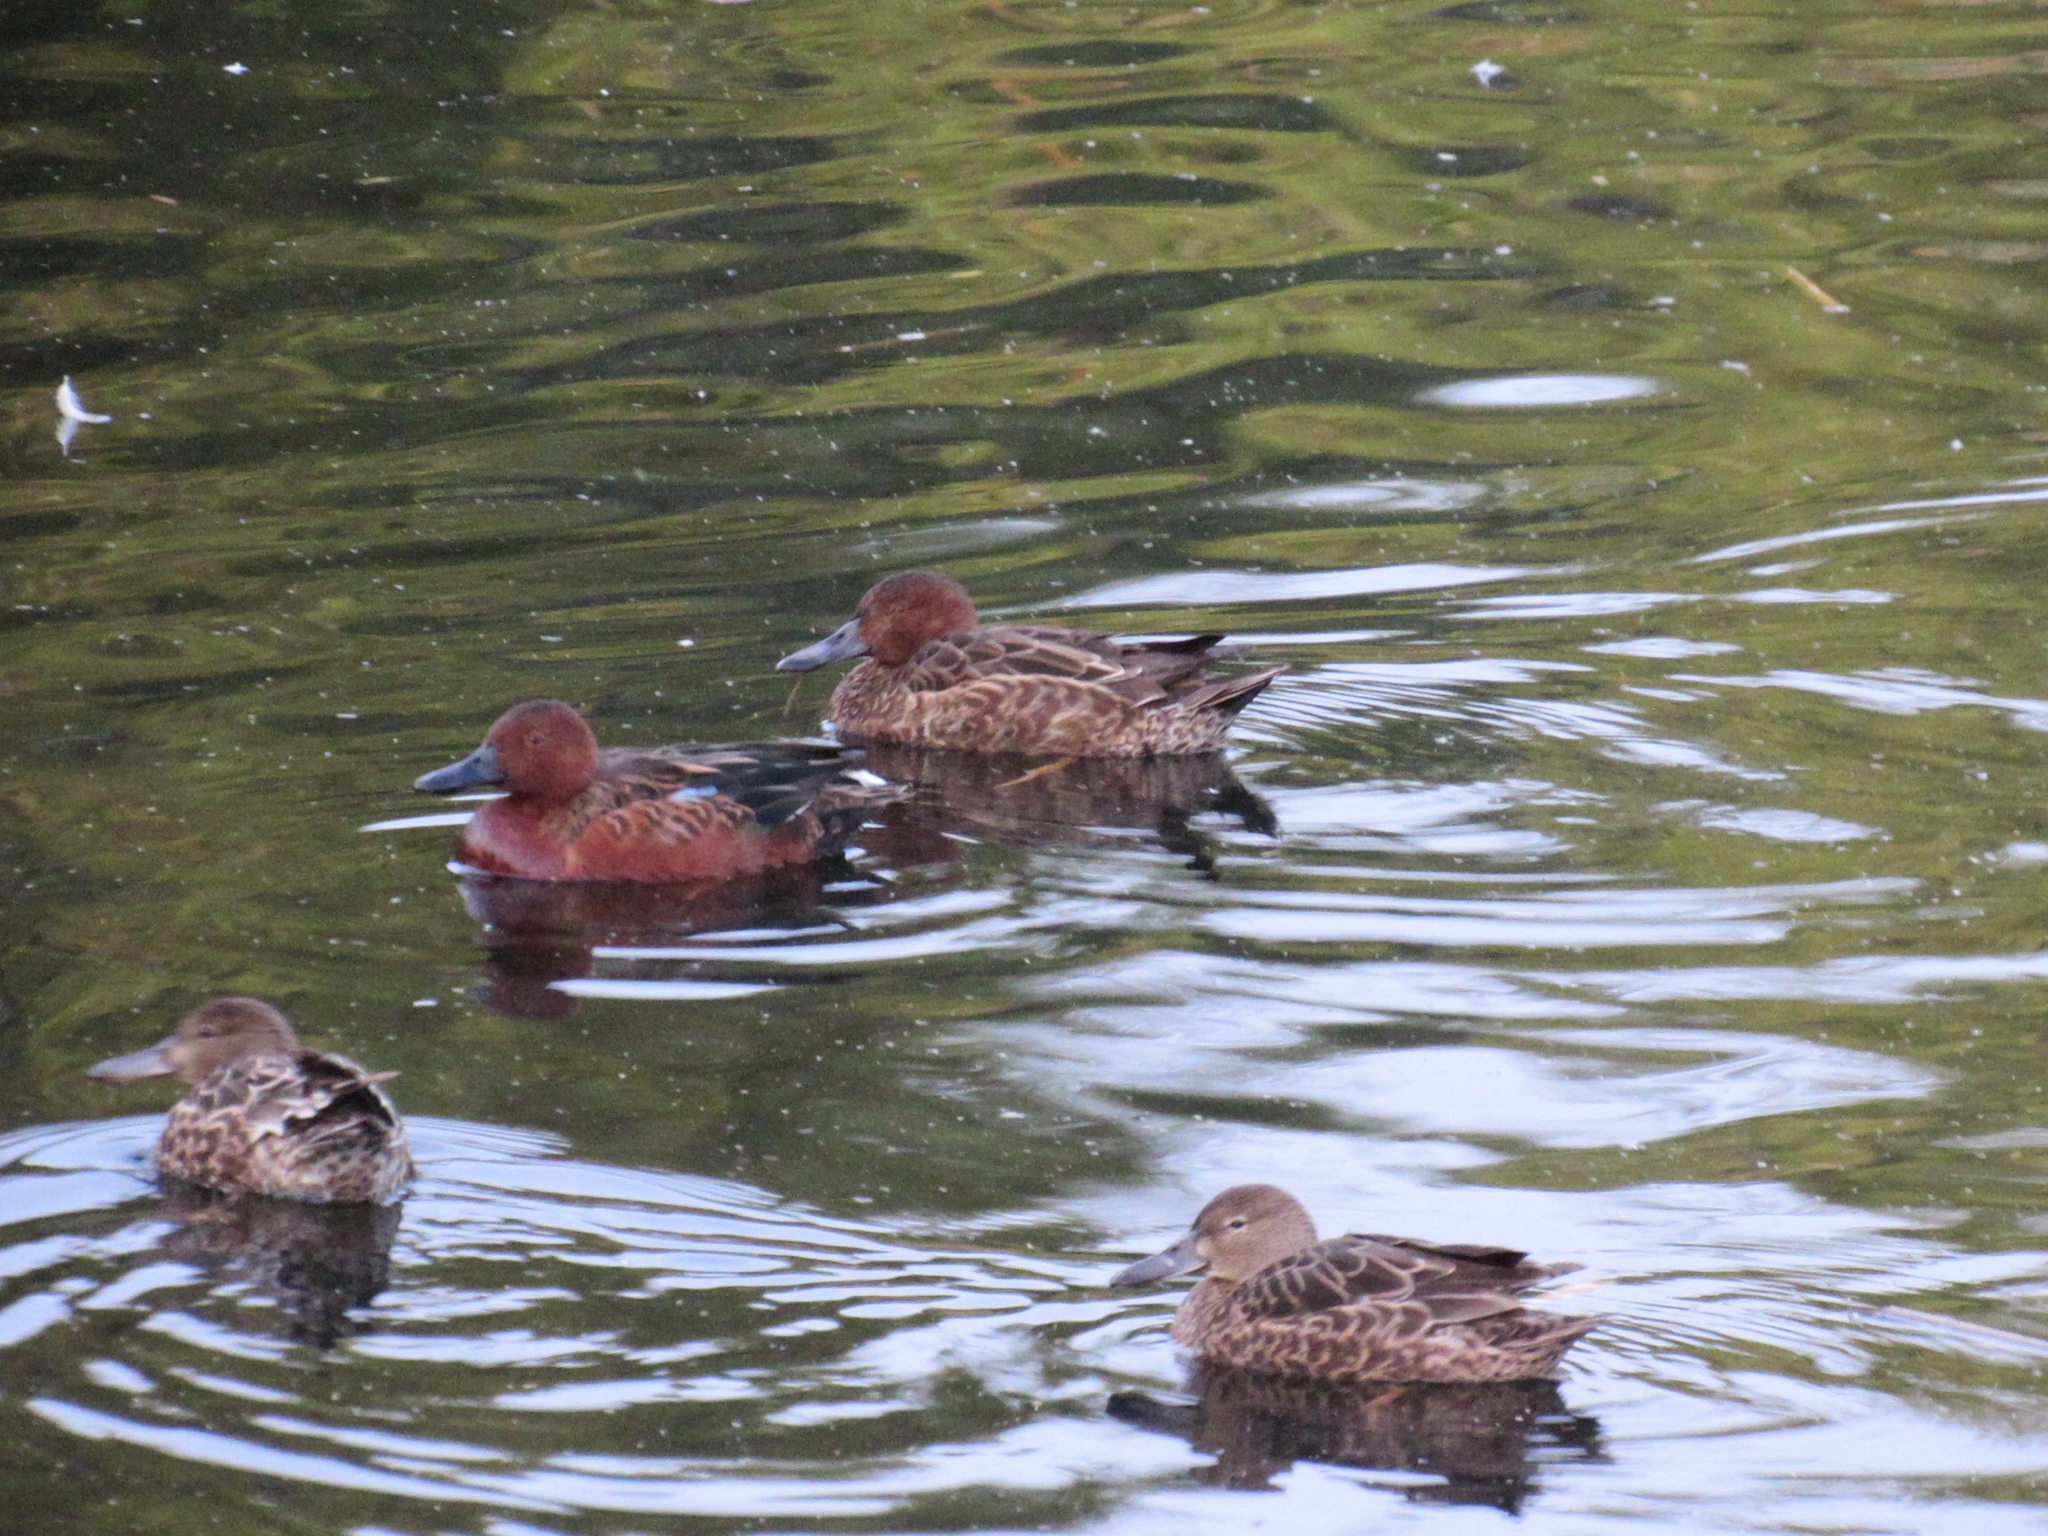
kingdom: Animalia
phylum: Chordata
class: Aves
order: Anseriformes
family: Anatidae
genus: Spatula
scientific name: Spatula cyanoptera
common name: Cinnamon teal
